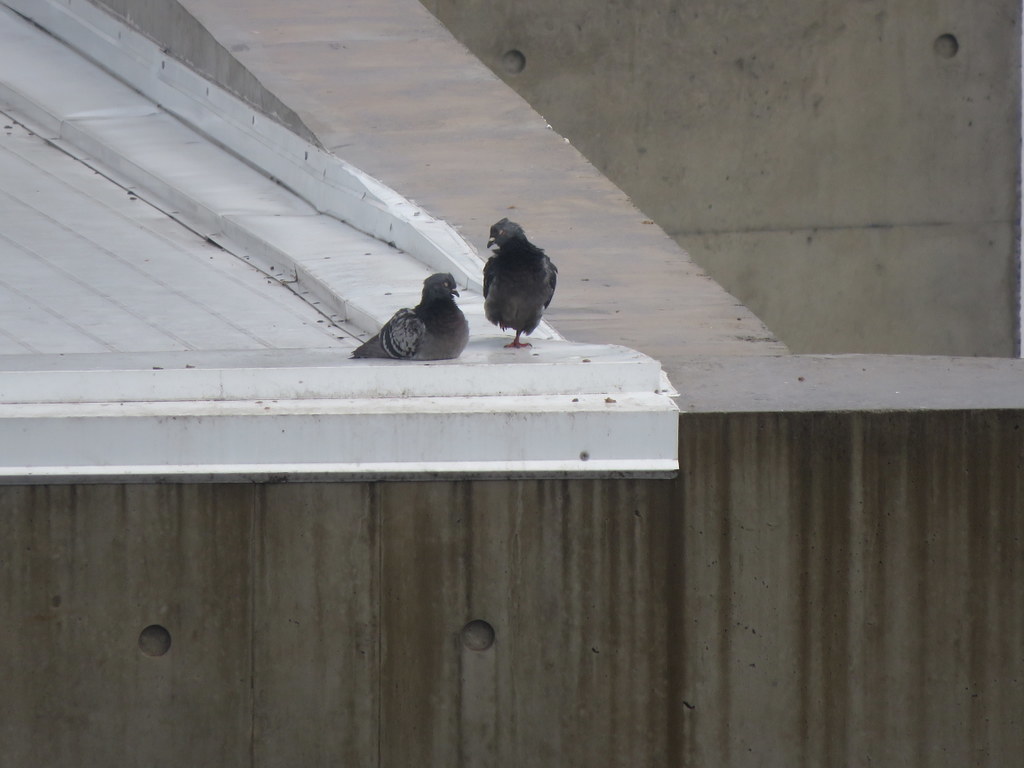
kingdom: Animalia
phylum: Chordata
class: Aves
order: Columbiformes
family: Columbidae
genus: Columba
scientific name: Columba livia
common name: Rock pigeon
